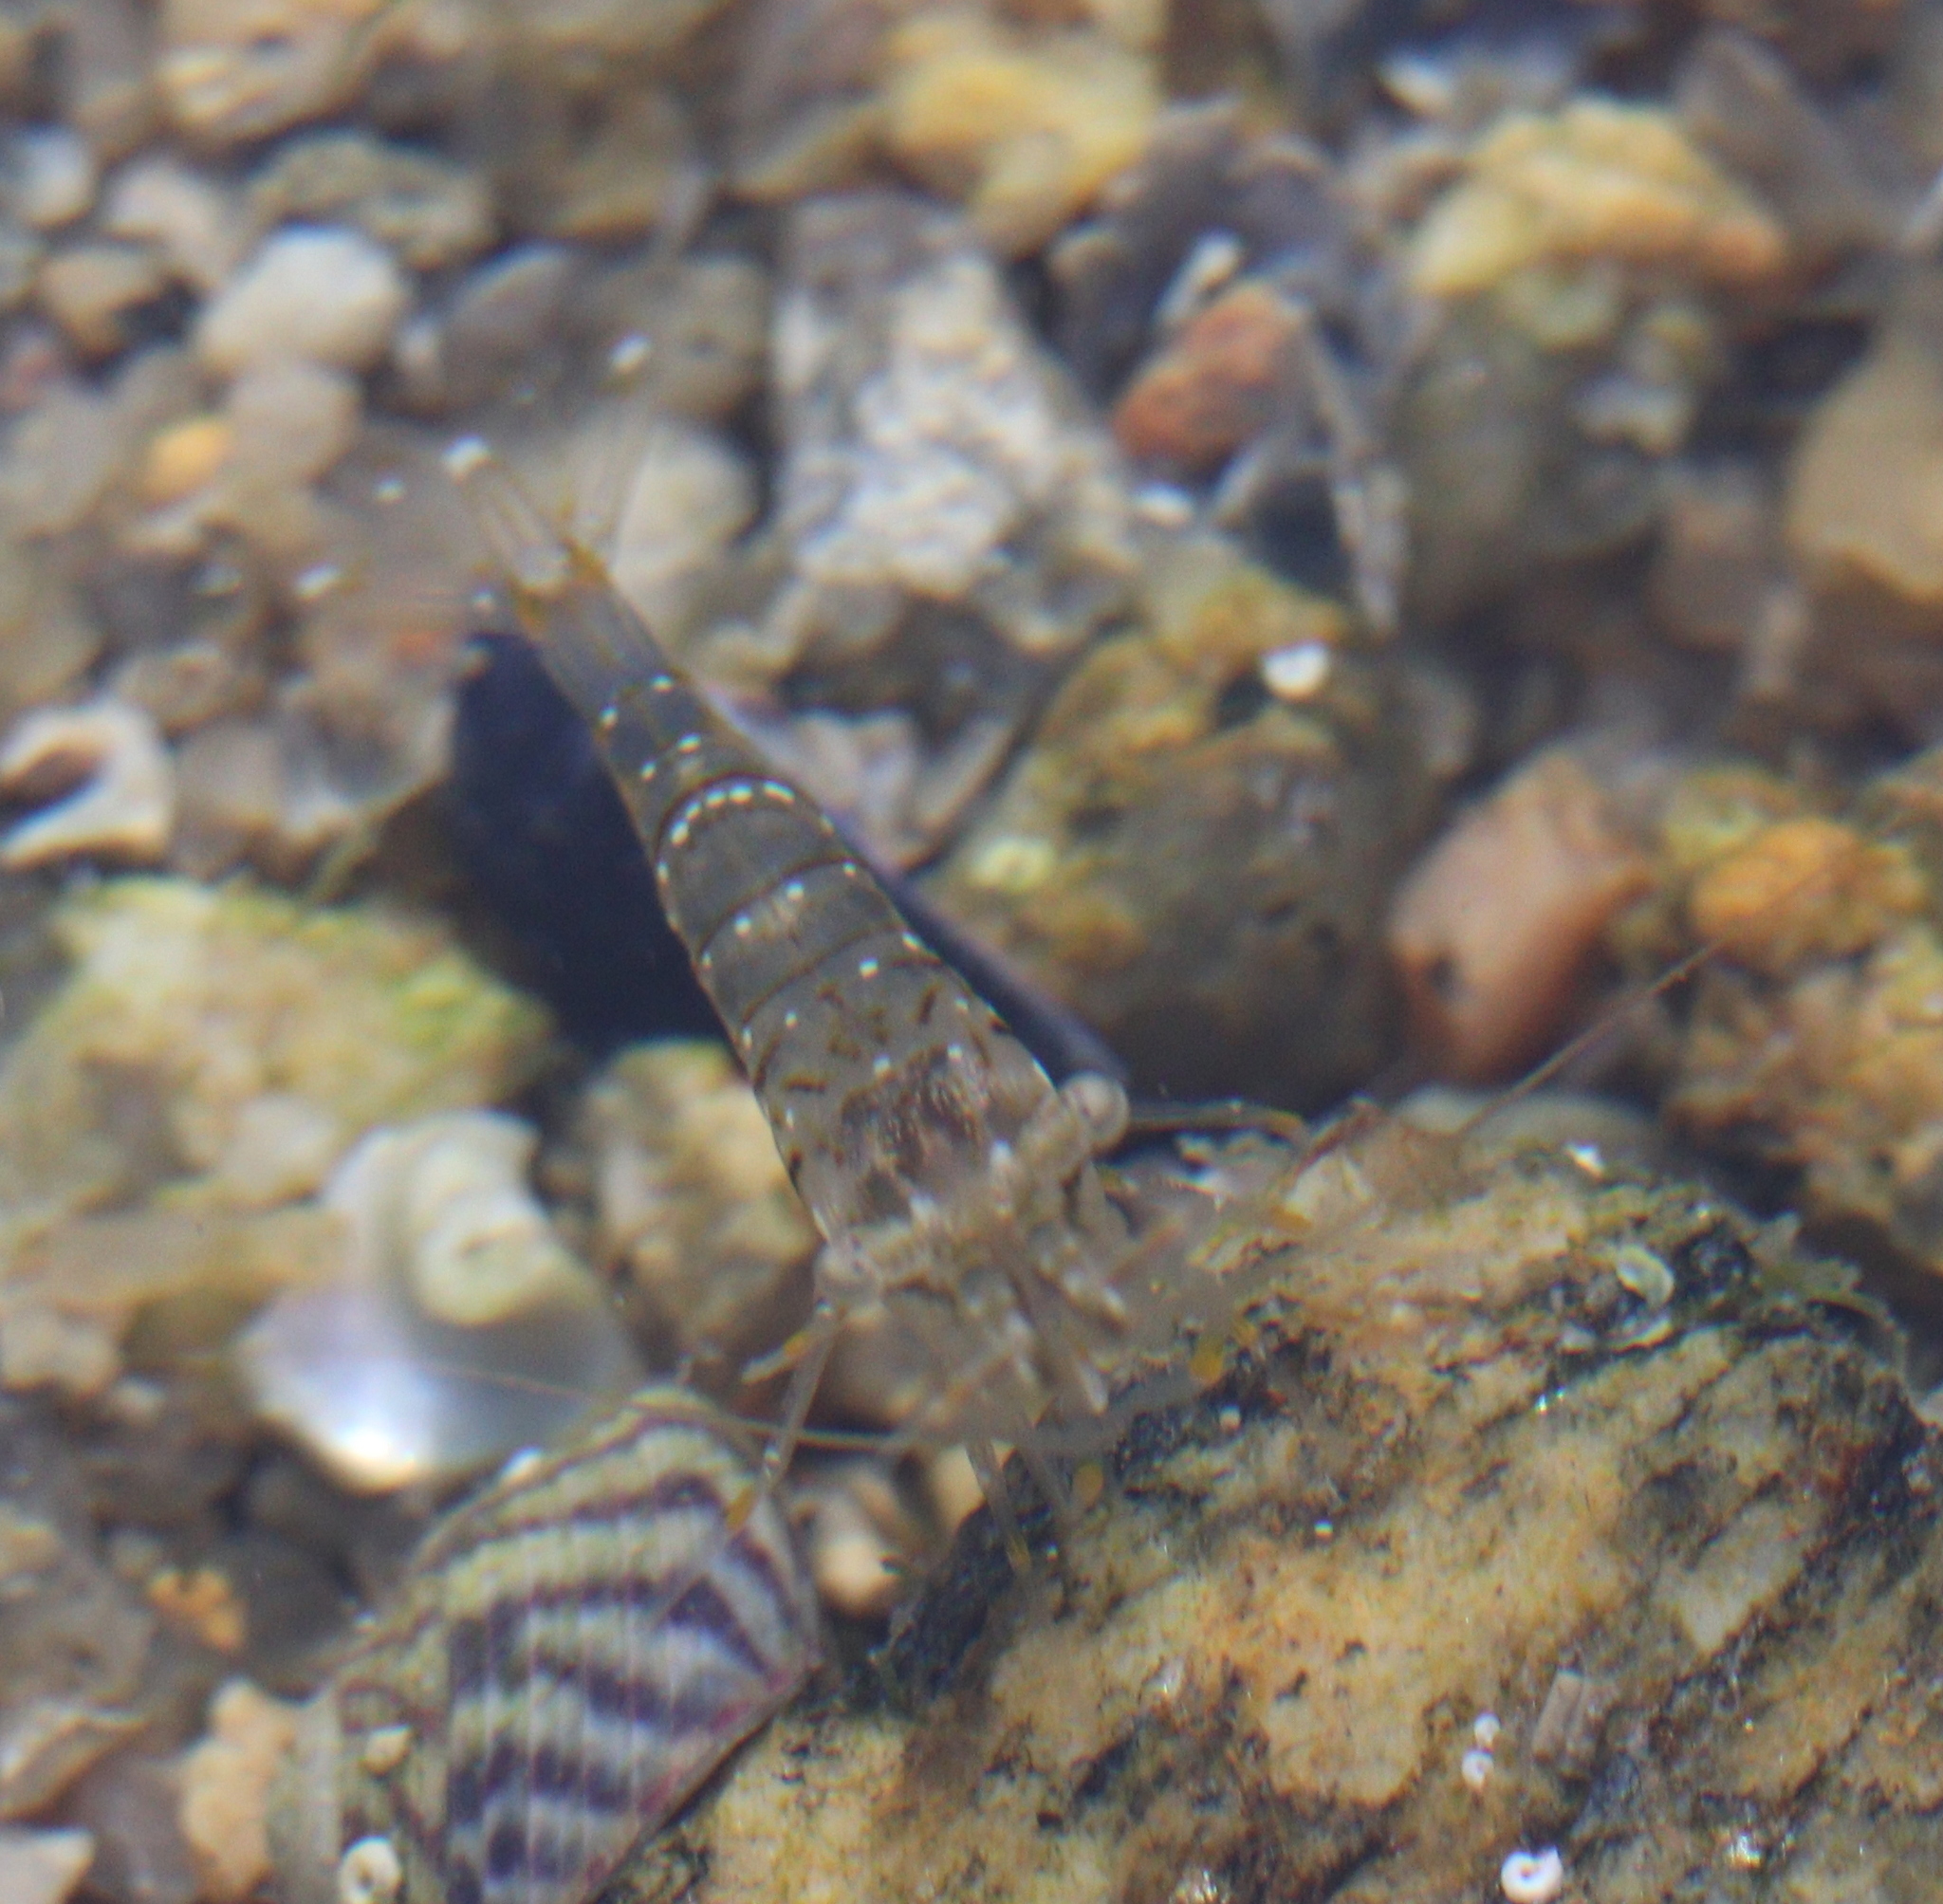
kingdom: Animalia
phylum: Arthropoda
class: Malacostraca
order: Decapoda
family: Palaemonidae
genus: Palaemon
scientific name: Palaemon elegans
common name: Grass prawm
